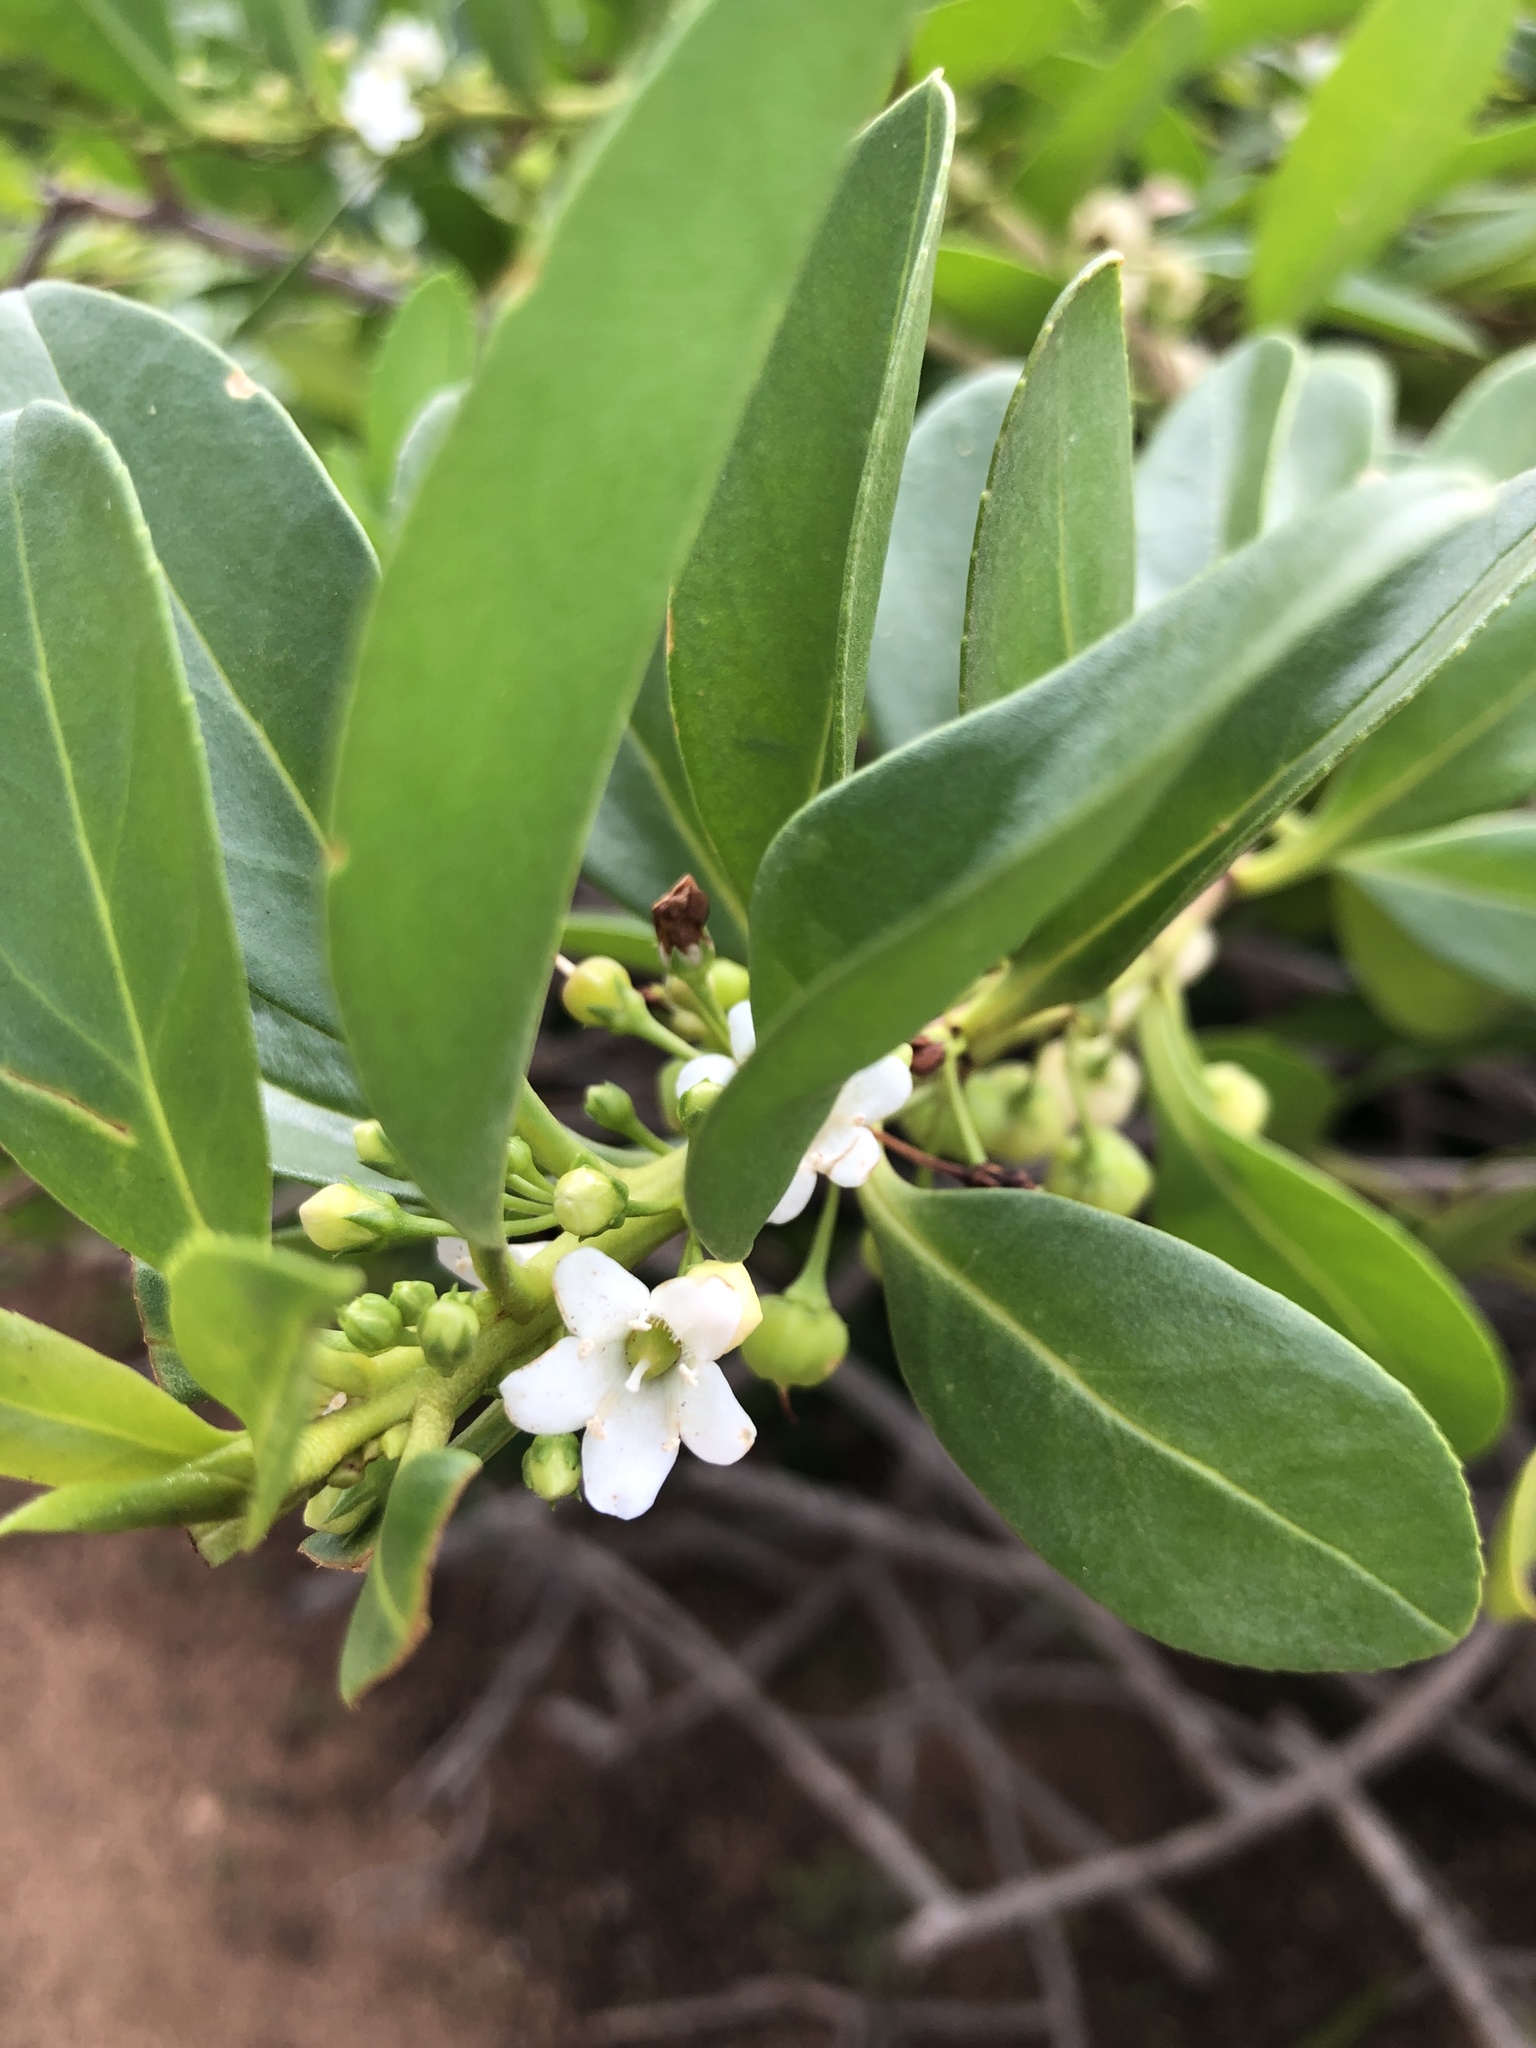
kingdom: Plantae
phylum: Tracheophyta
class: Magnoliopsida
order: Lamiales
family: Scrophulariaceae
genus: Myoporum
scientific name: Myoporum sandwicense
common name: Bastard-sandalwood
